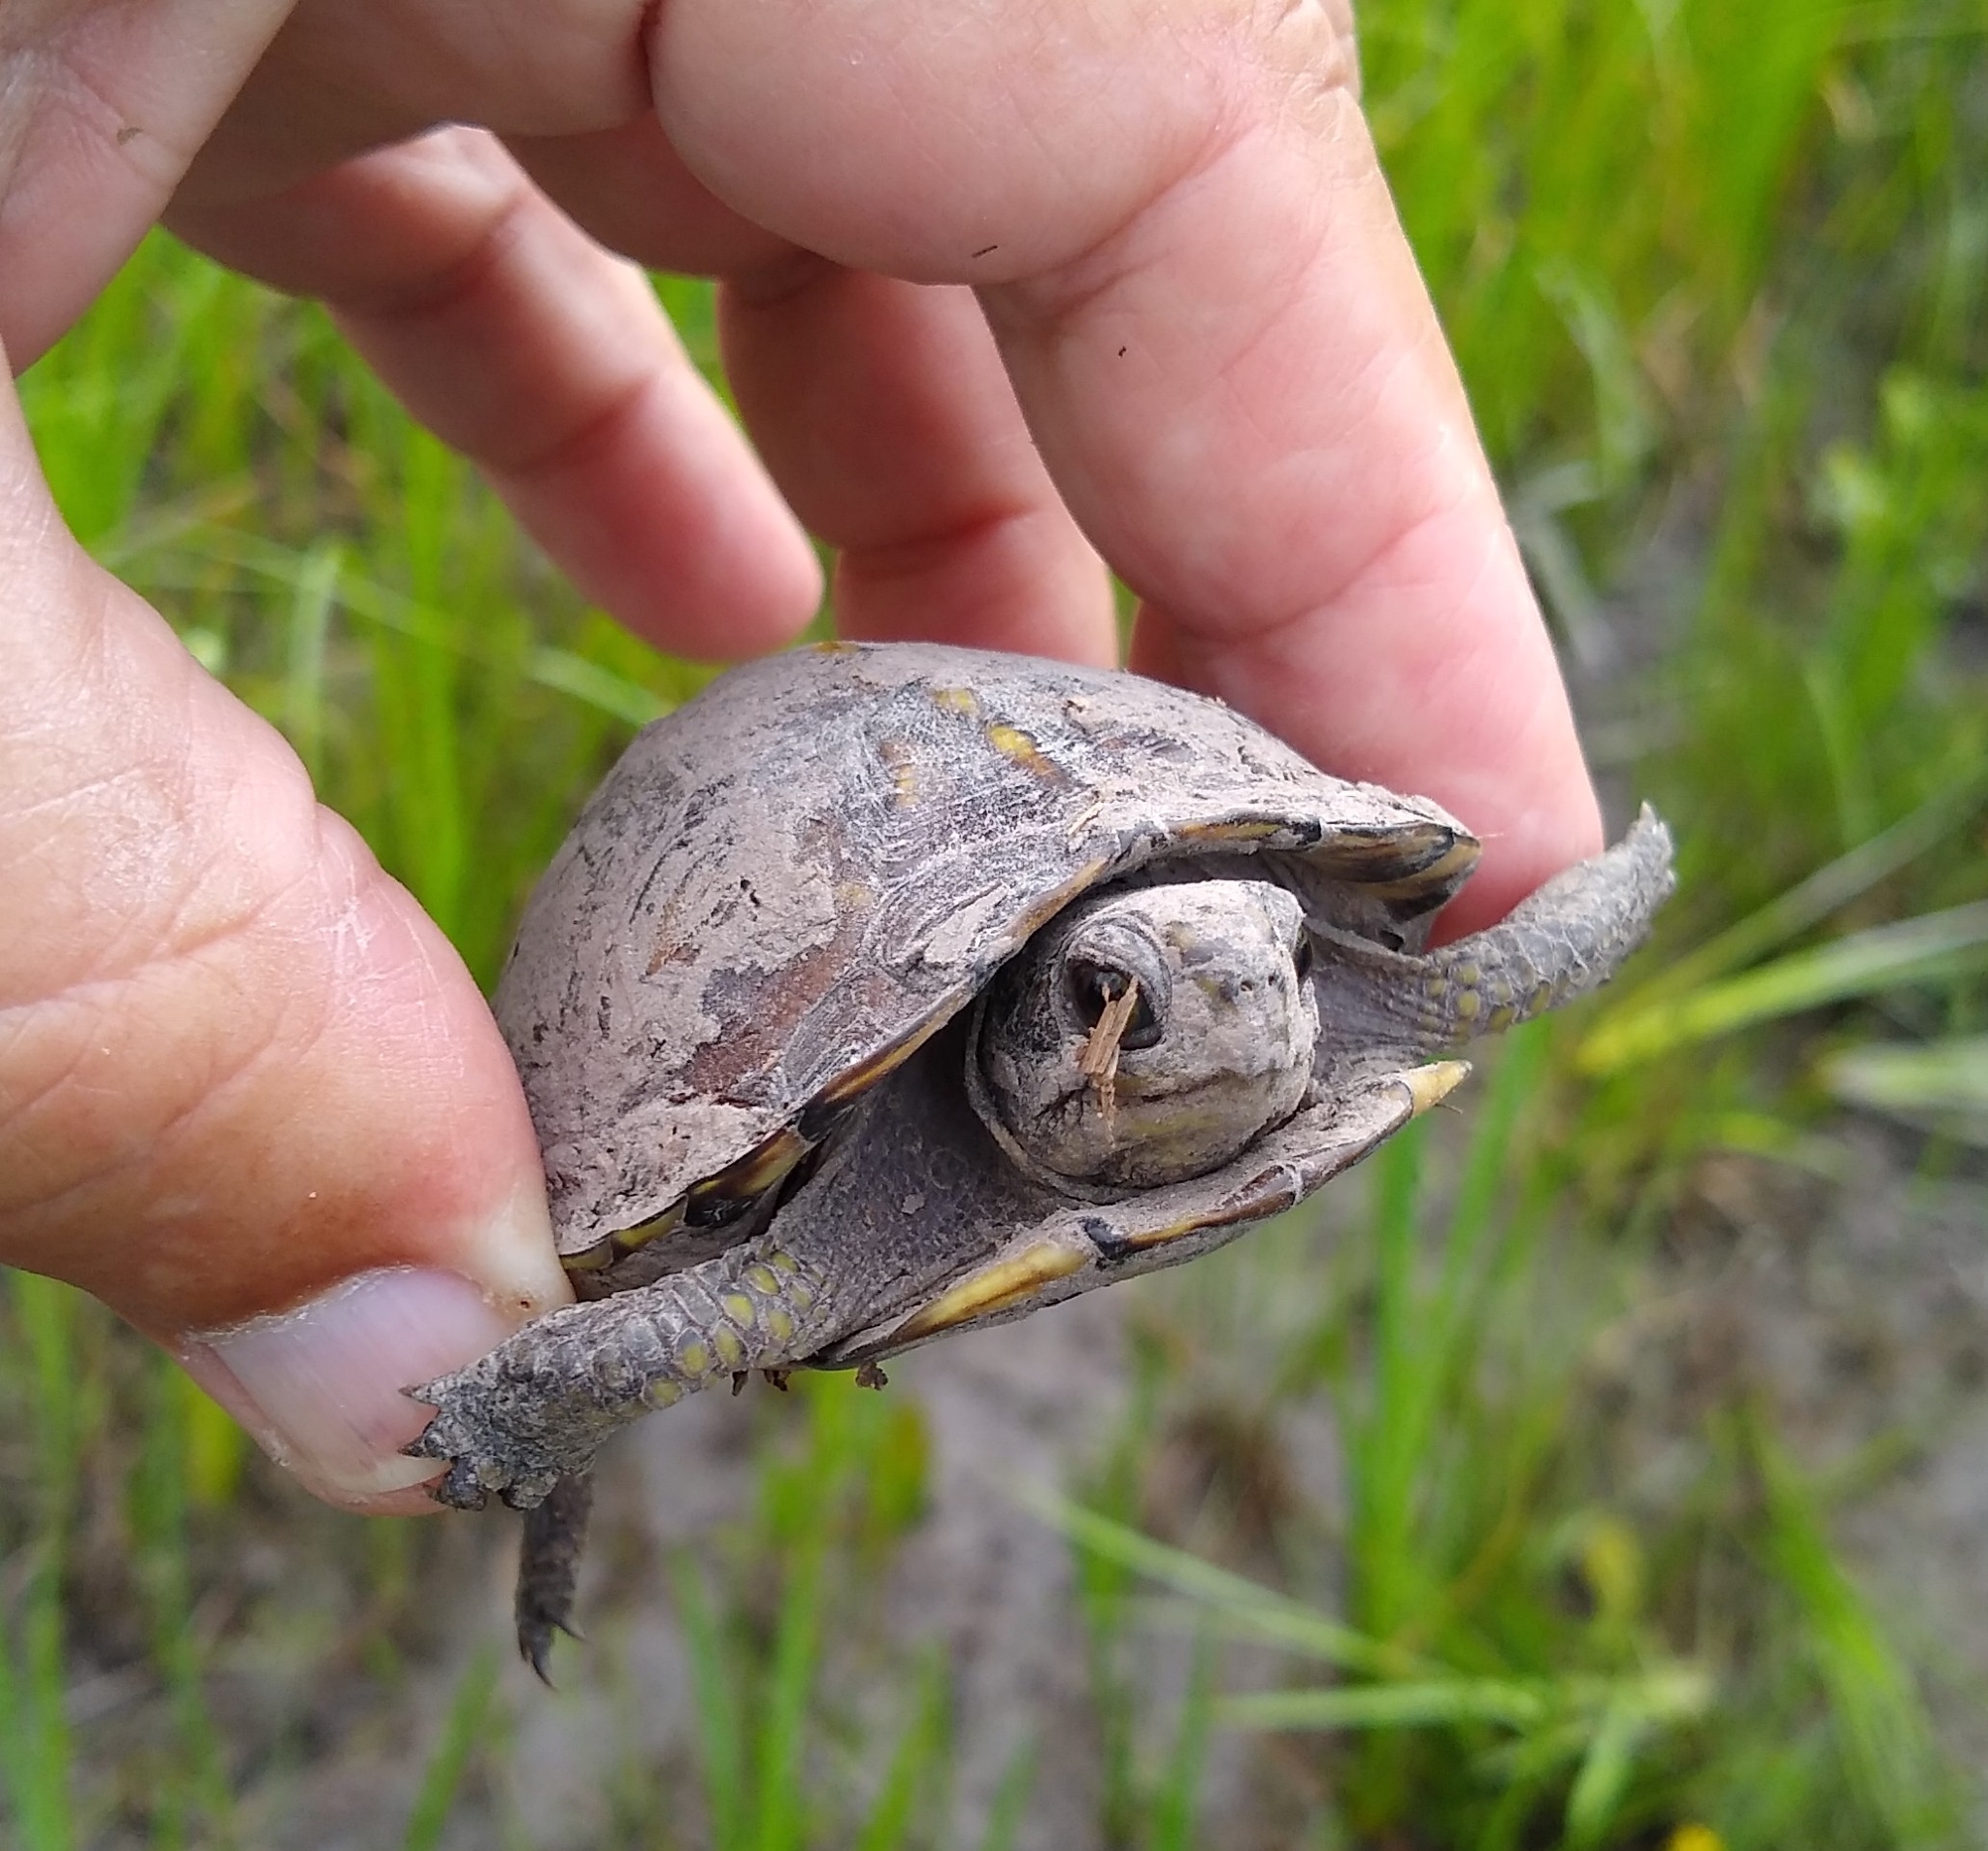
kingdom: Animalia
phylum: Chordata
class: Testudines
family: Emydidae
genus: Terrapene
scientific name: Terrapene carolina
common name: Common box turtle
